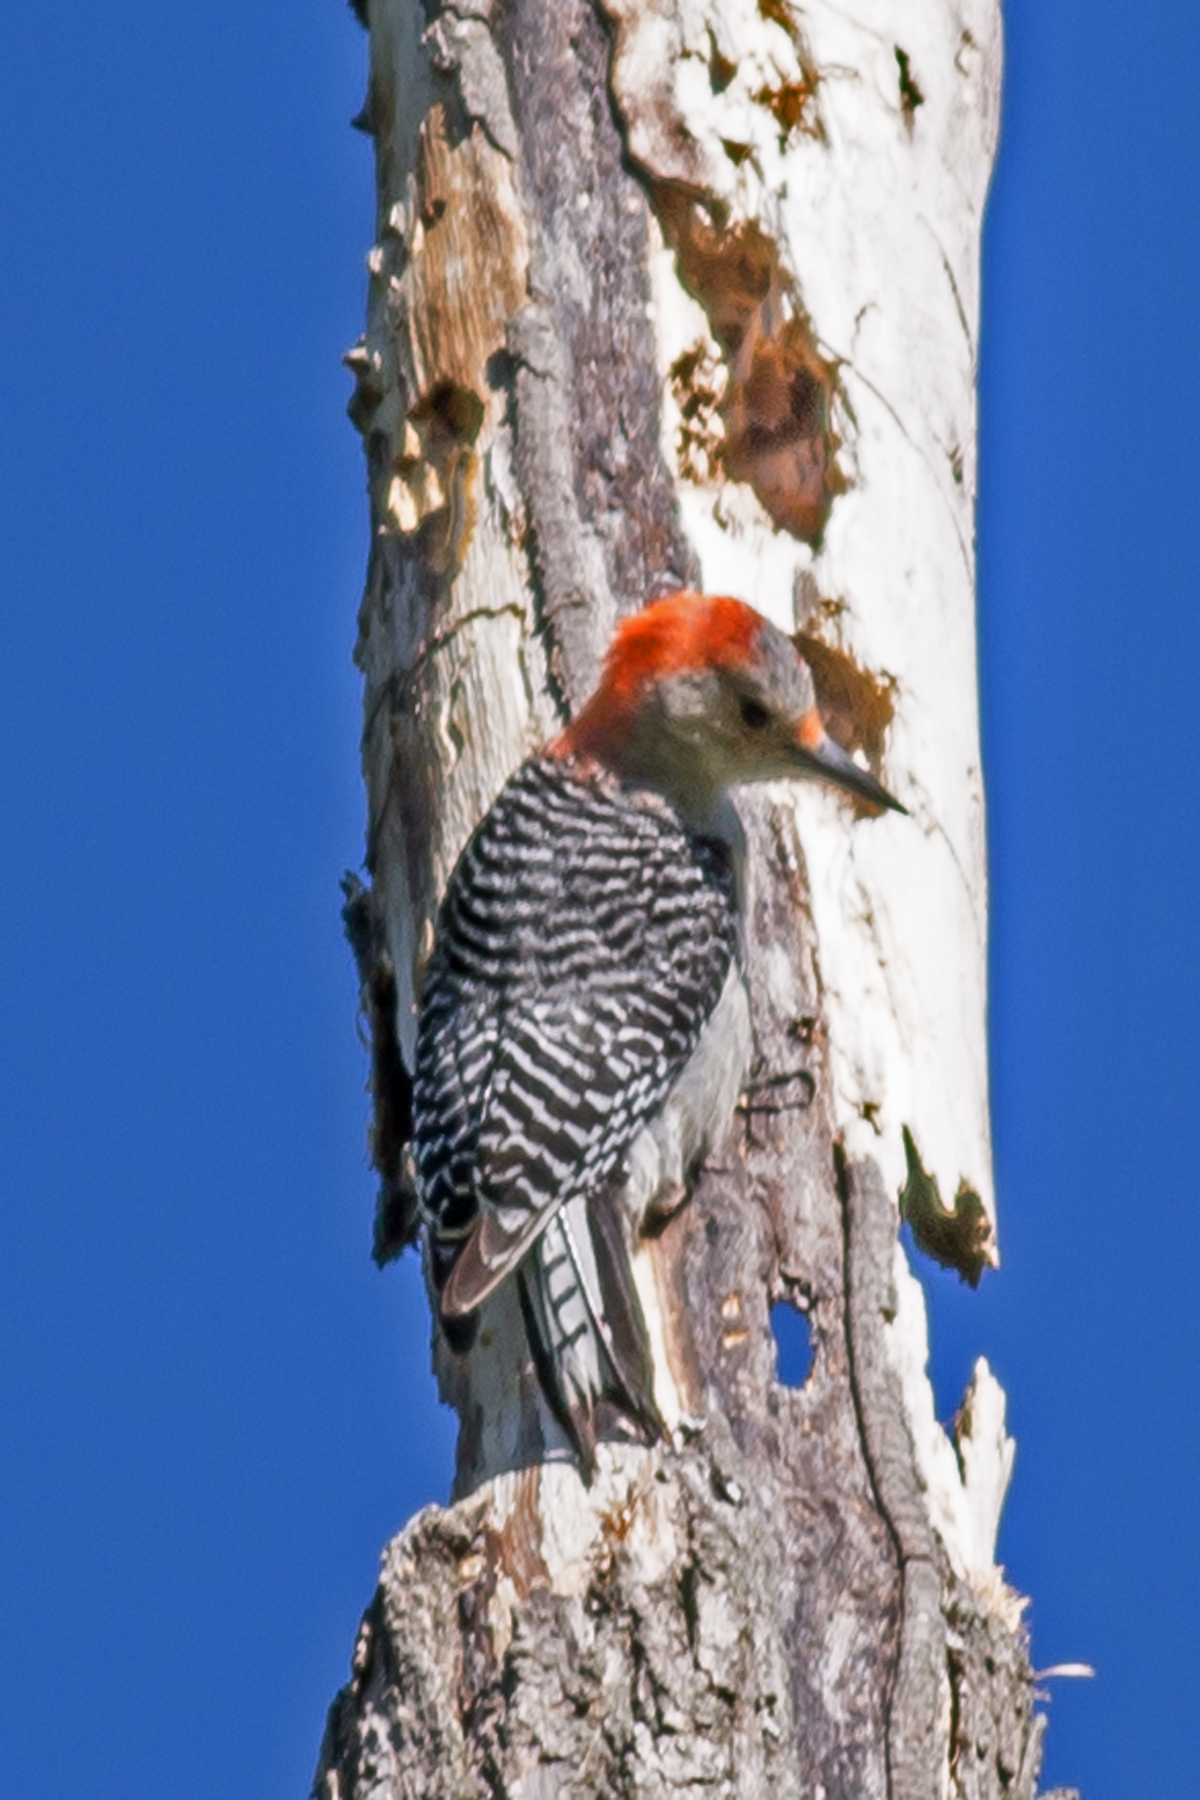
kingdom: Animalia
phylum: Chordata
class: Aves
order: Piciformes
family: Picidae
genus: Melanerpes
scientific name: Melanerpes carolinus
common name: Red-bellied woodpecker
